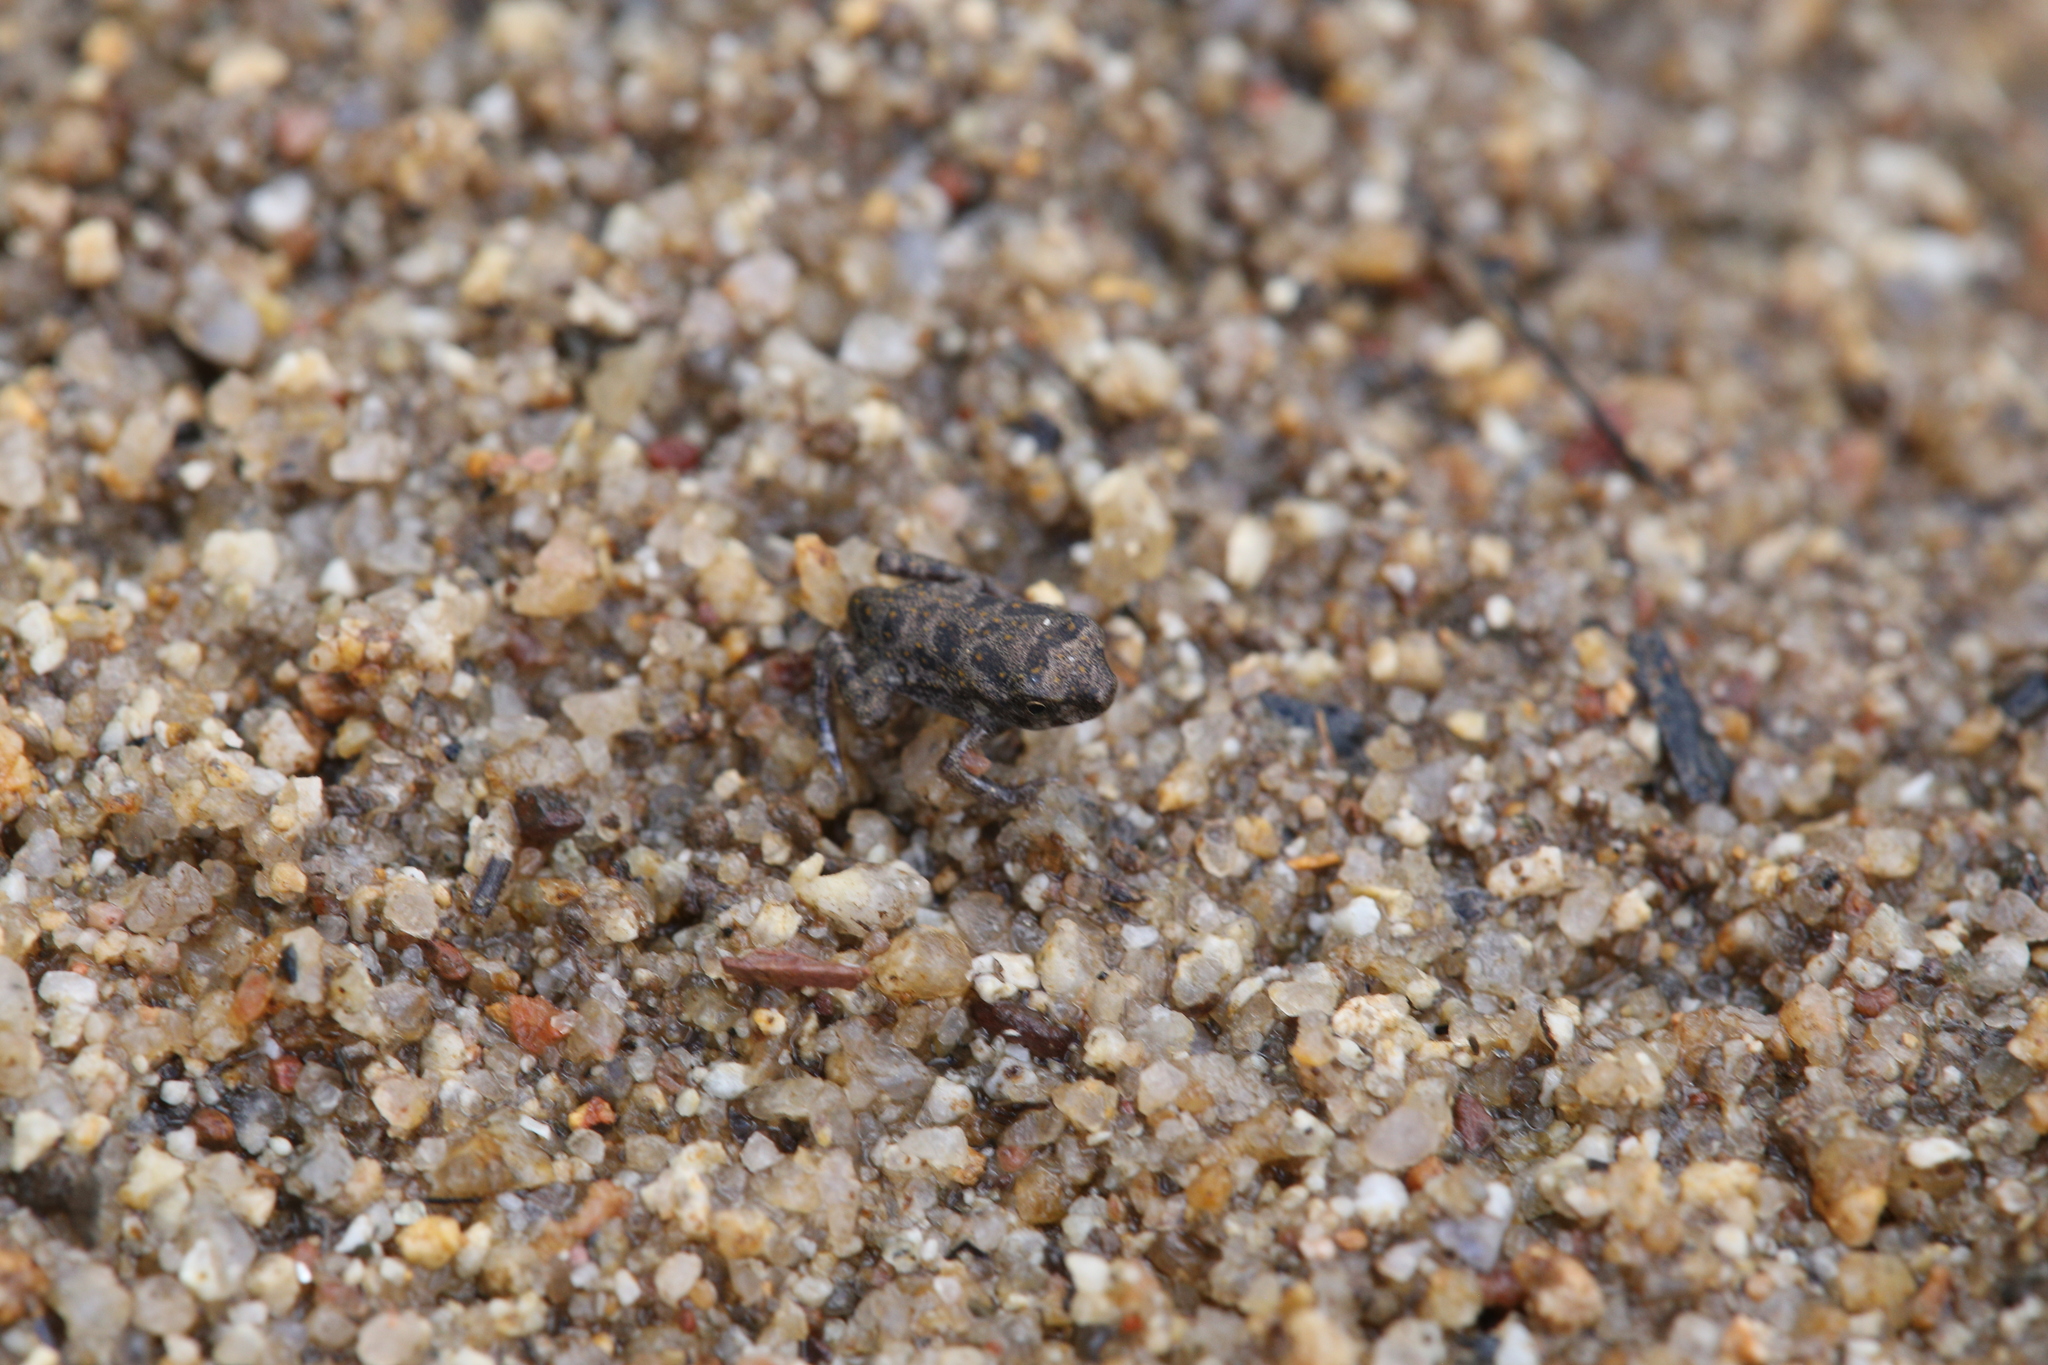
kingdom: Animalia
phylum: Chordata
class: Amphibia
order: Anura
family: Bufonidae
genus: Rhinella
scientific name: Rhinella marina
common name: Cane toad
